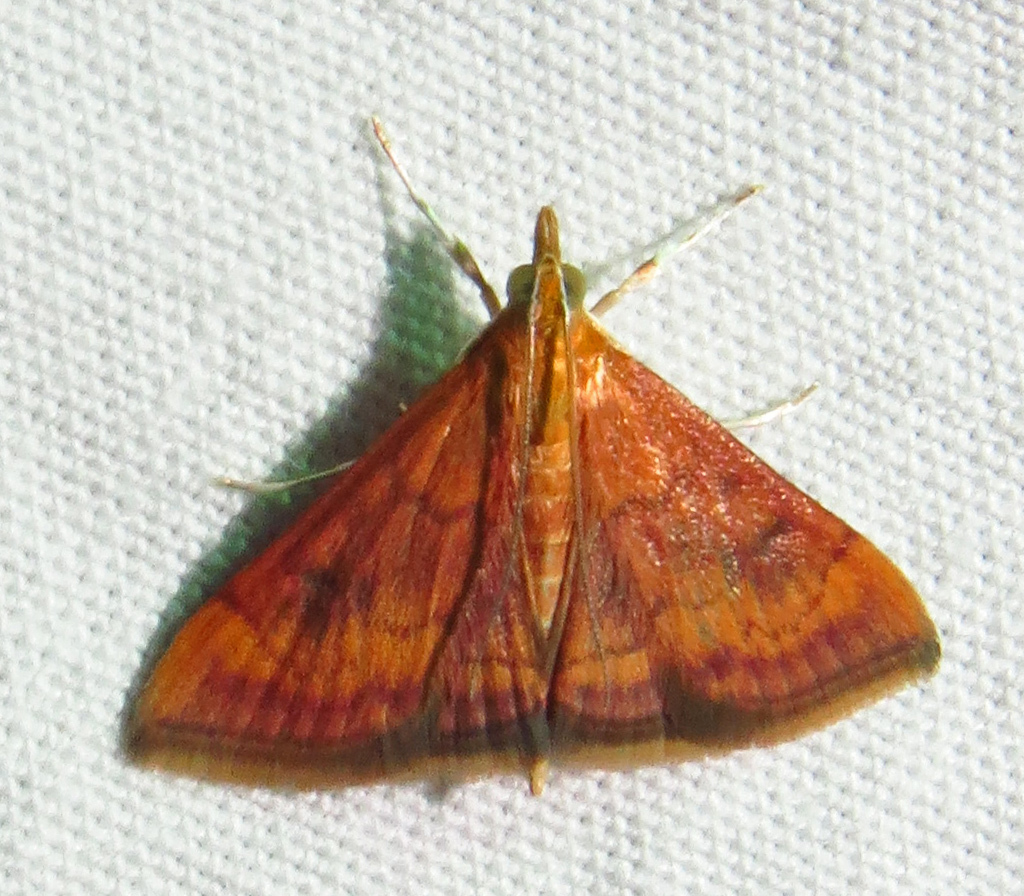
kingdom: Animalia
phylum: Arthropoda
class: Insecta
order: Lepidoptera
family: Crambidae
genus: Pyrausta
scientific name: Pyrausta rubricalis
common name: Variable reddish pyrausta
